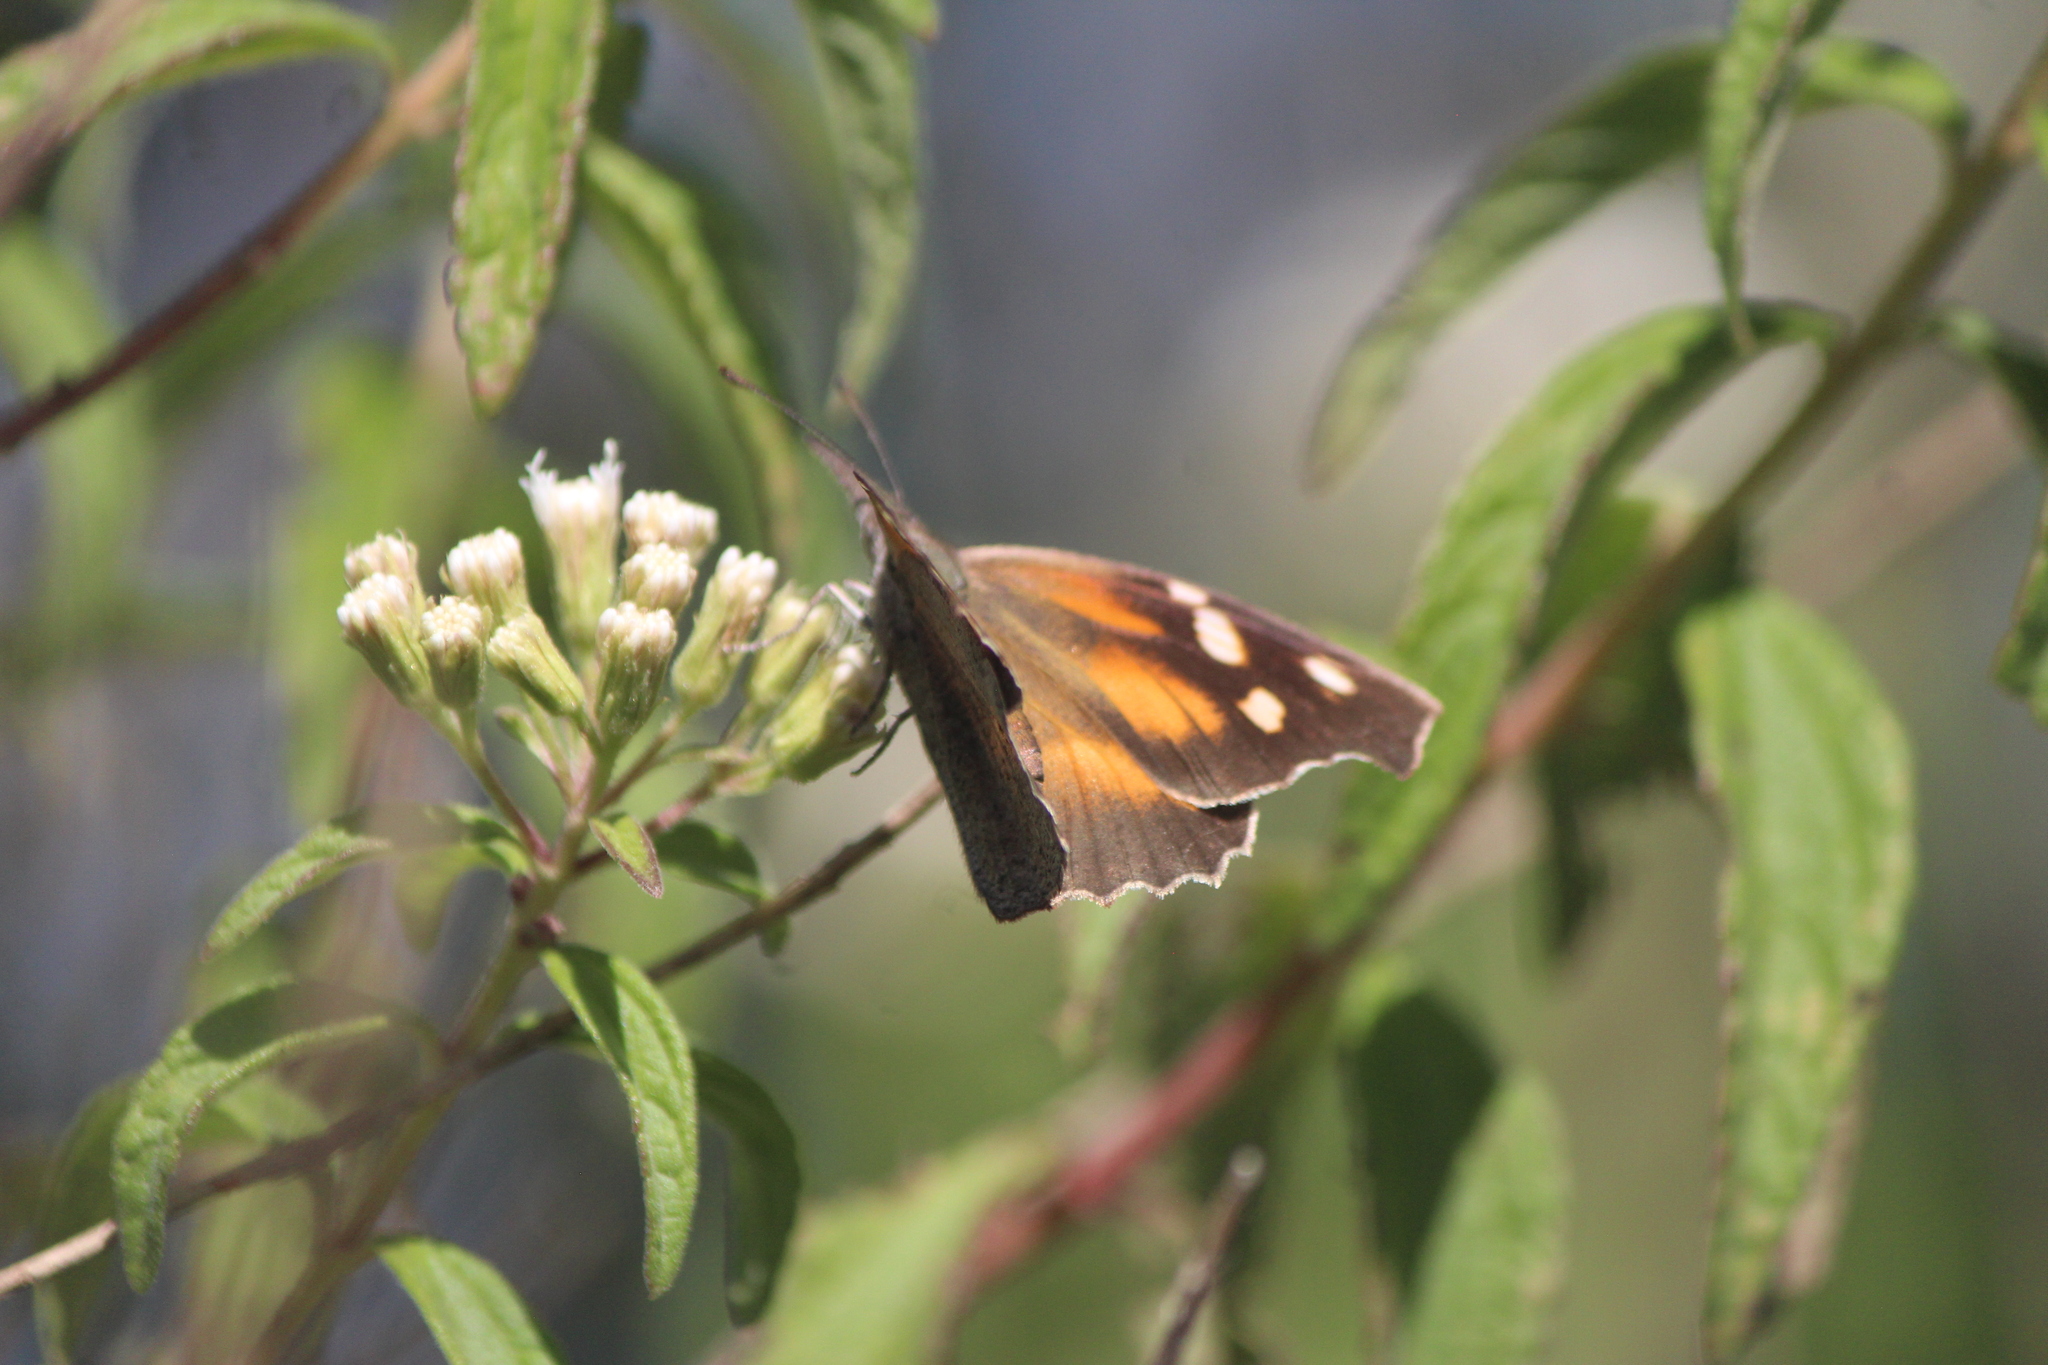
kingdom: Animalia
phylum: Arthropoda
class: Insecta
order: Lepidoptera
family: Nymphalidae
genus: Libytheana
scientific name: Libytheana carinenta
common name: American snout
